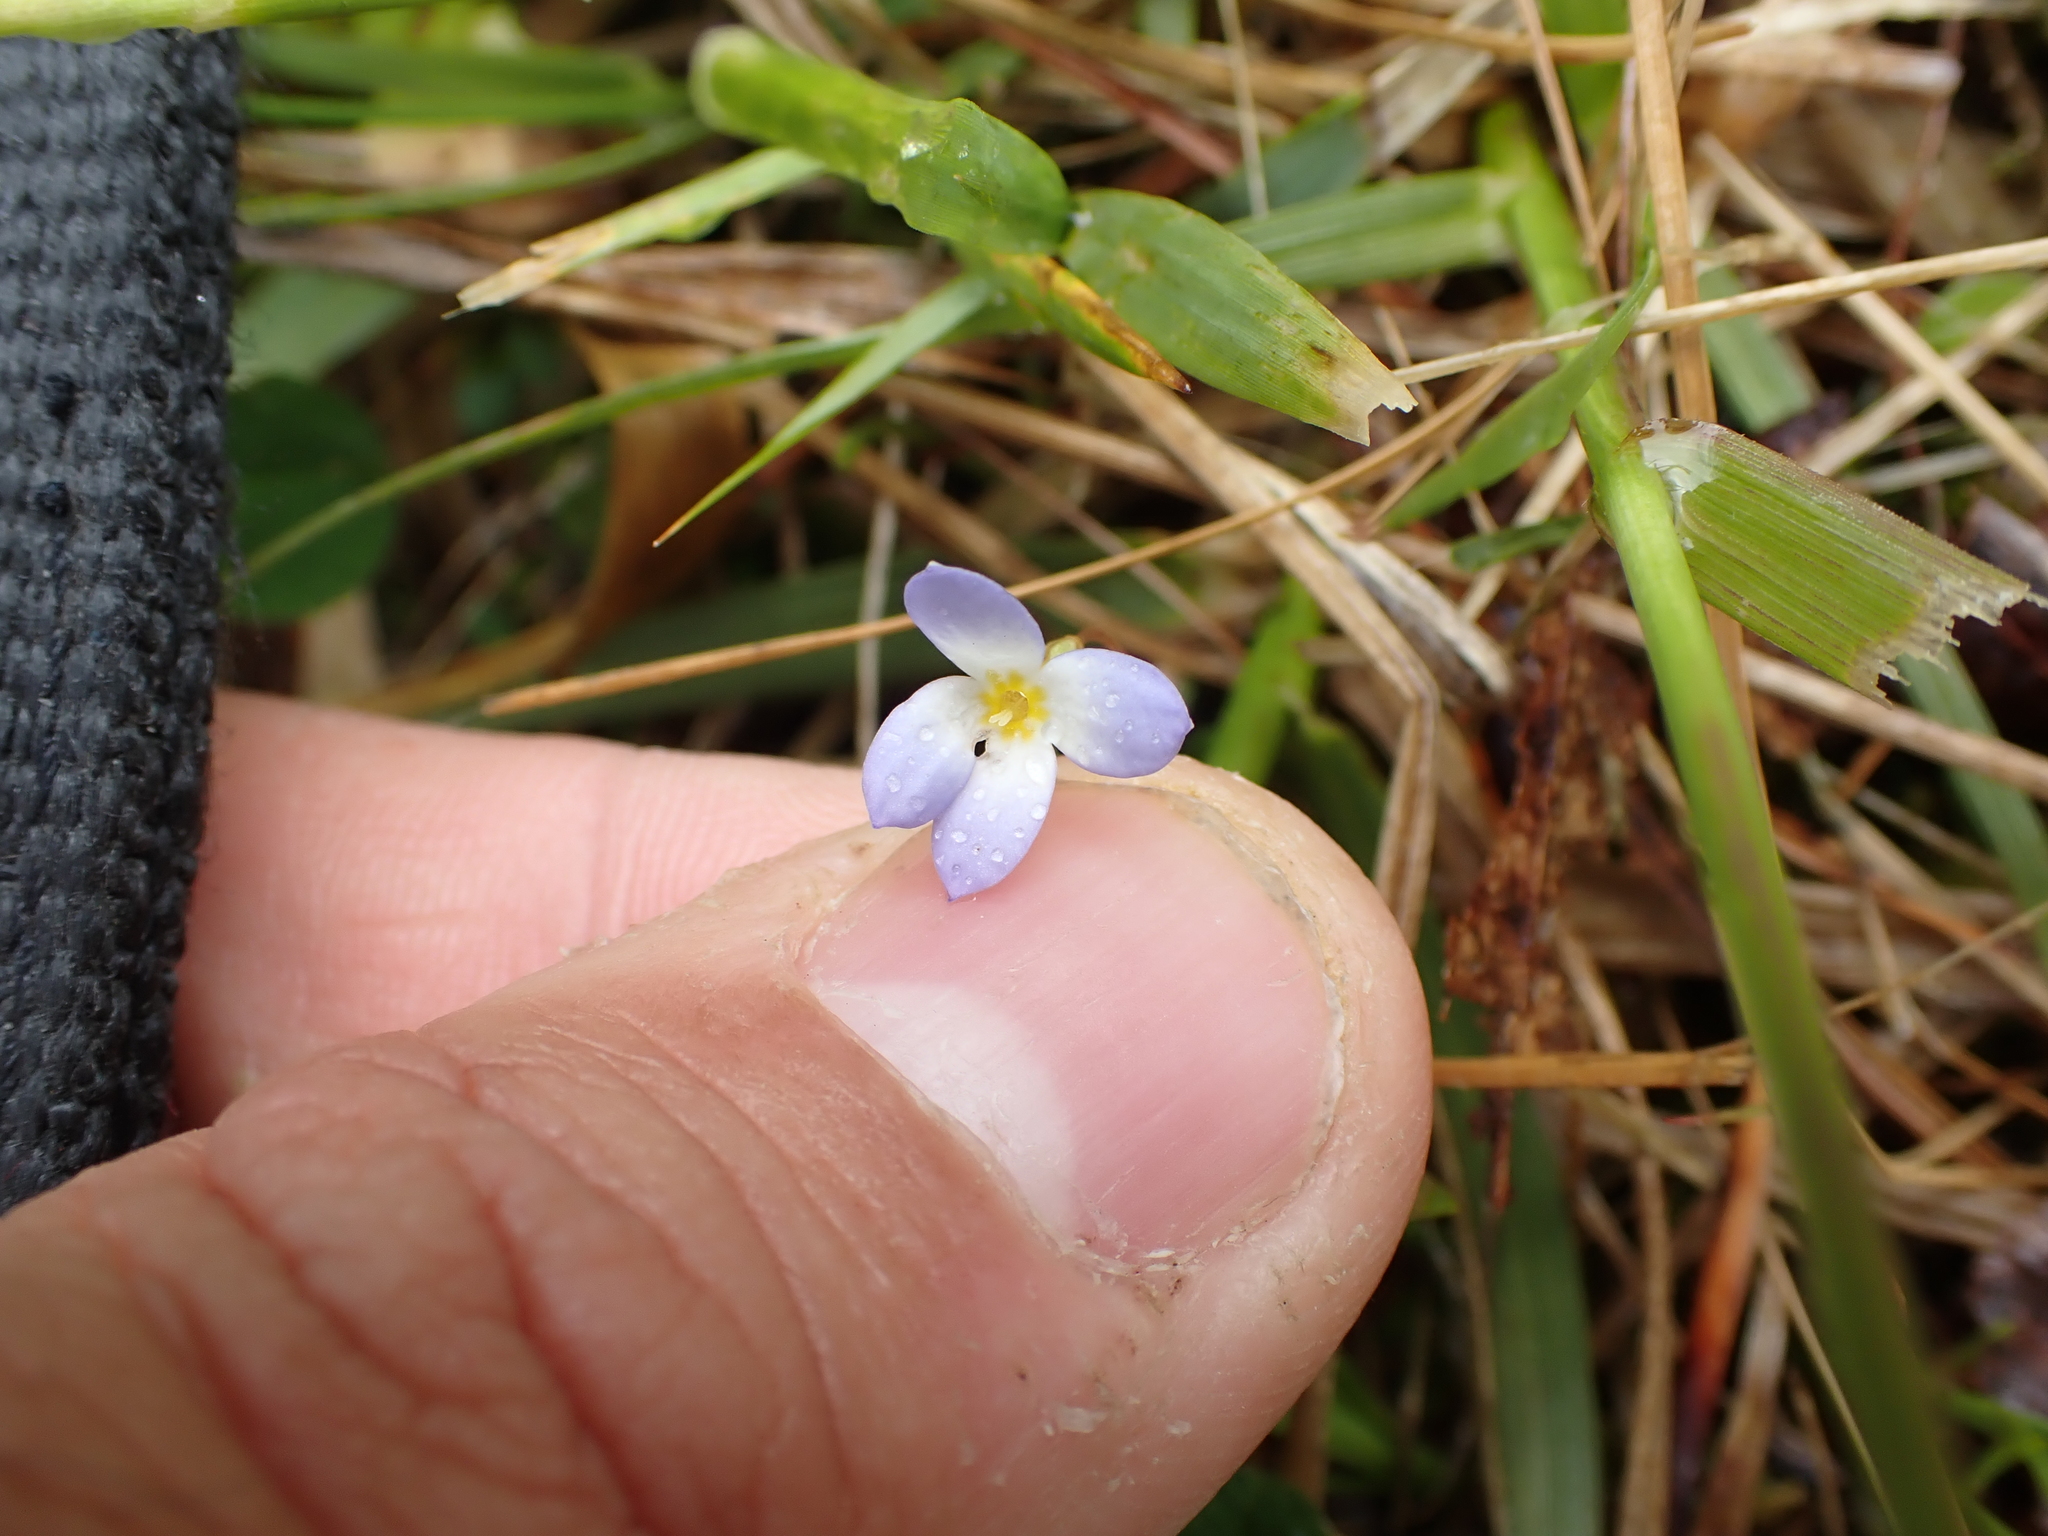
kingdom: Plantae
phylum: Tracheophyta
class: Magnoliopsida
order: Gentianales
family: Rubiaceae
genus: Houstonia
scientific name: Houstonia caerulea
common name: Bluets
